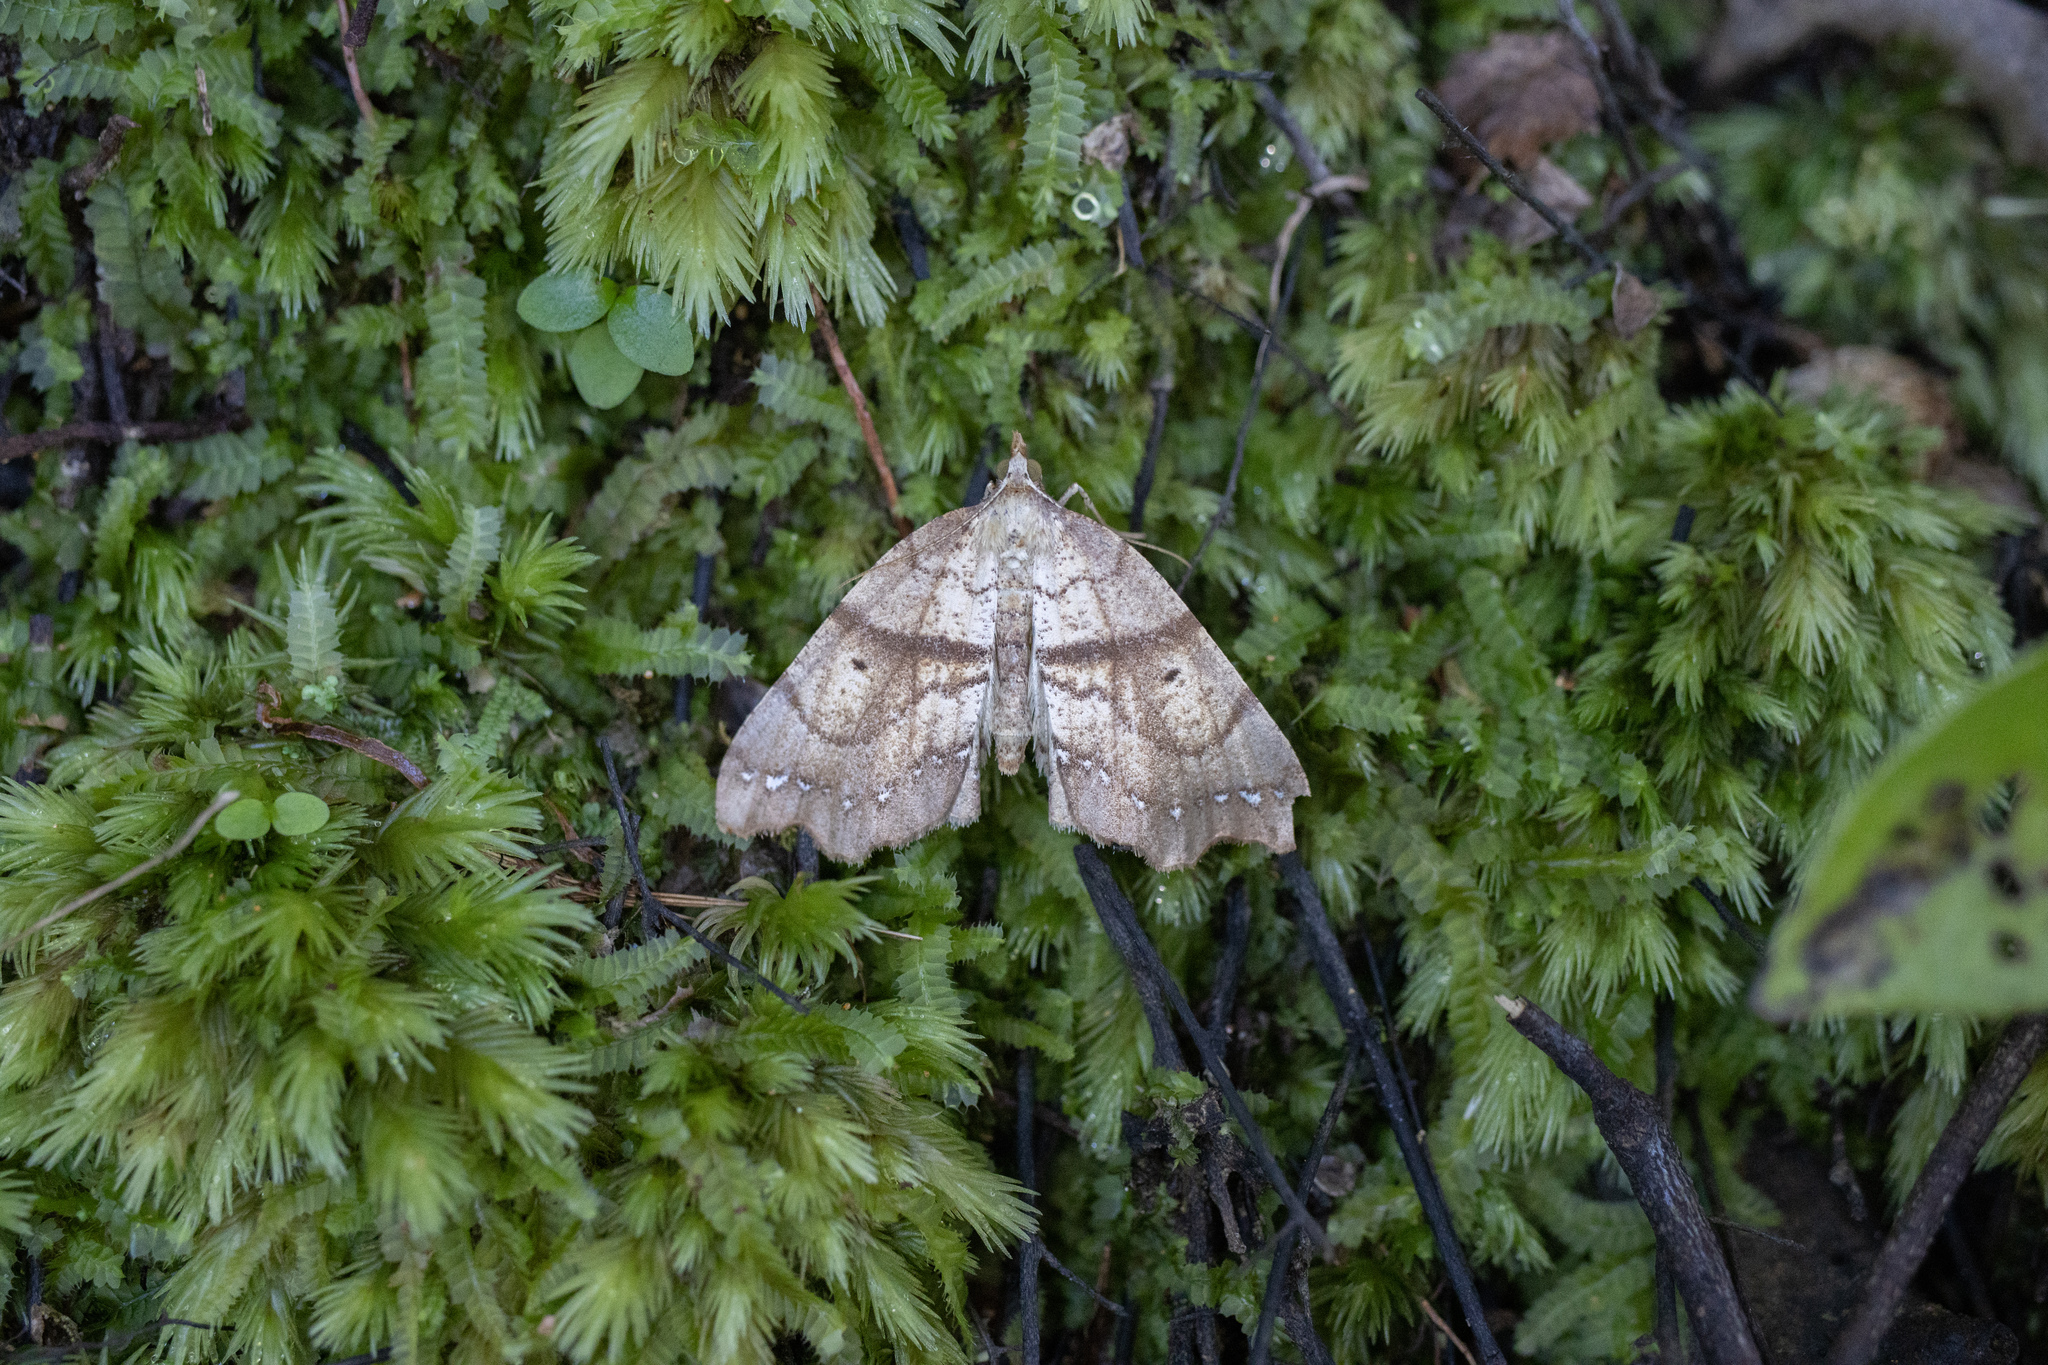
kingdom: Animalia
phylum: Arthropoda
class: Insecta
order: Lepidoptera
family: Geometridae
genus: Chalastra
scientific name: Chalastra pellurgata
